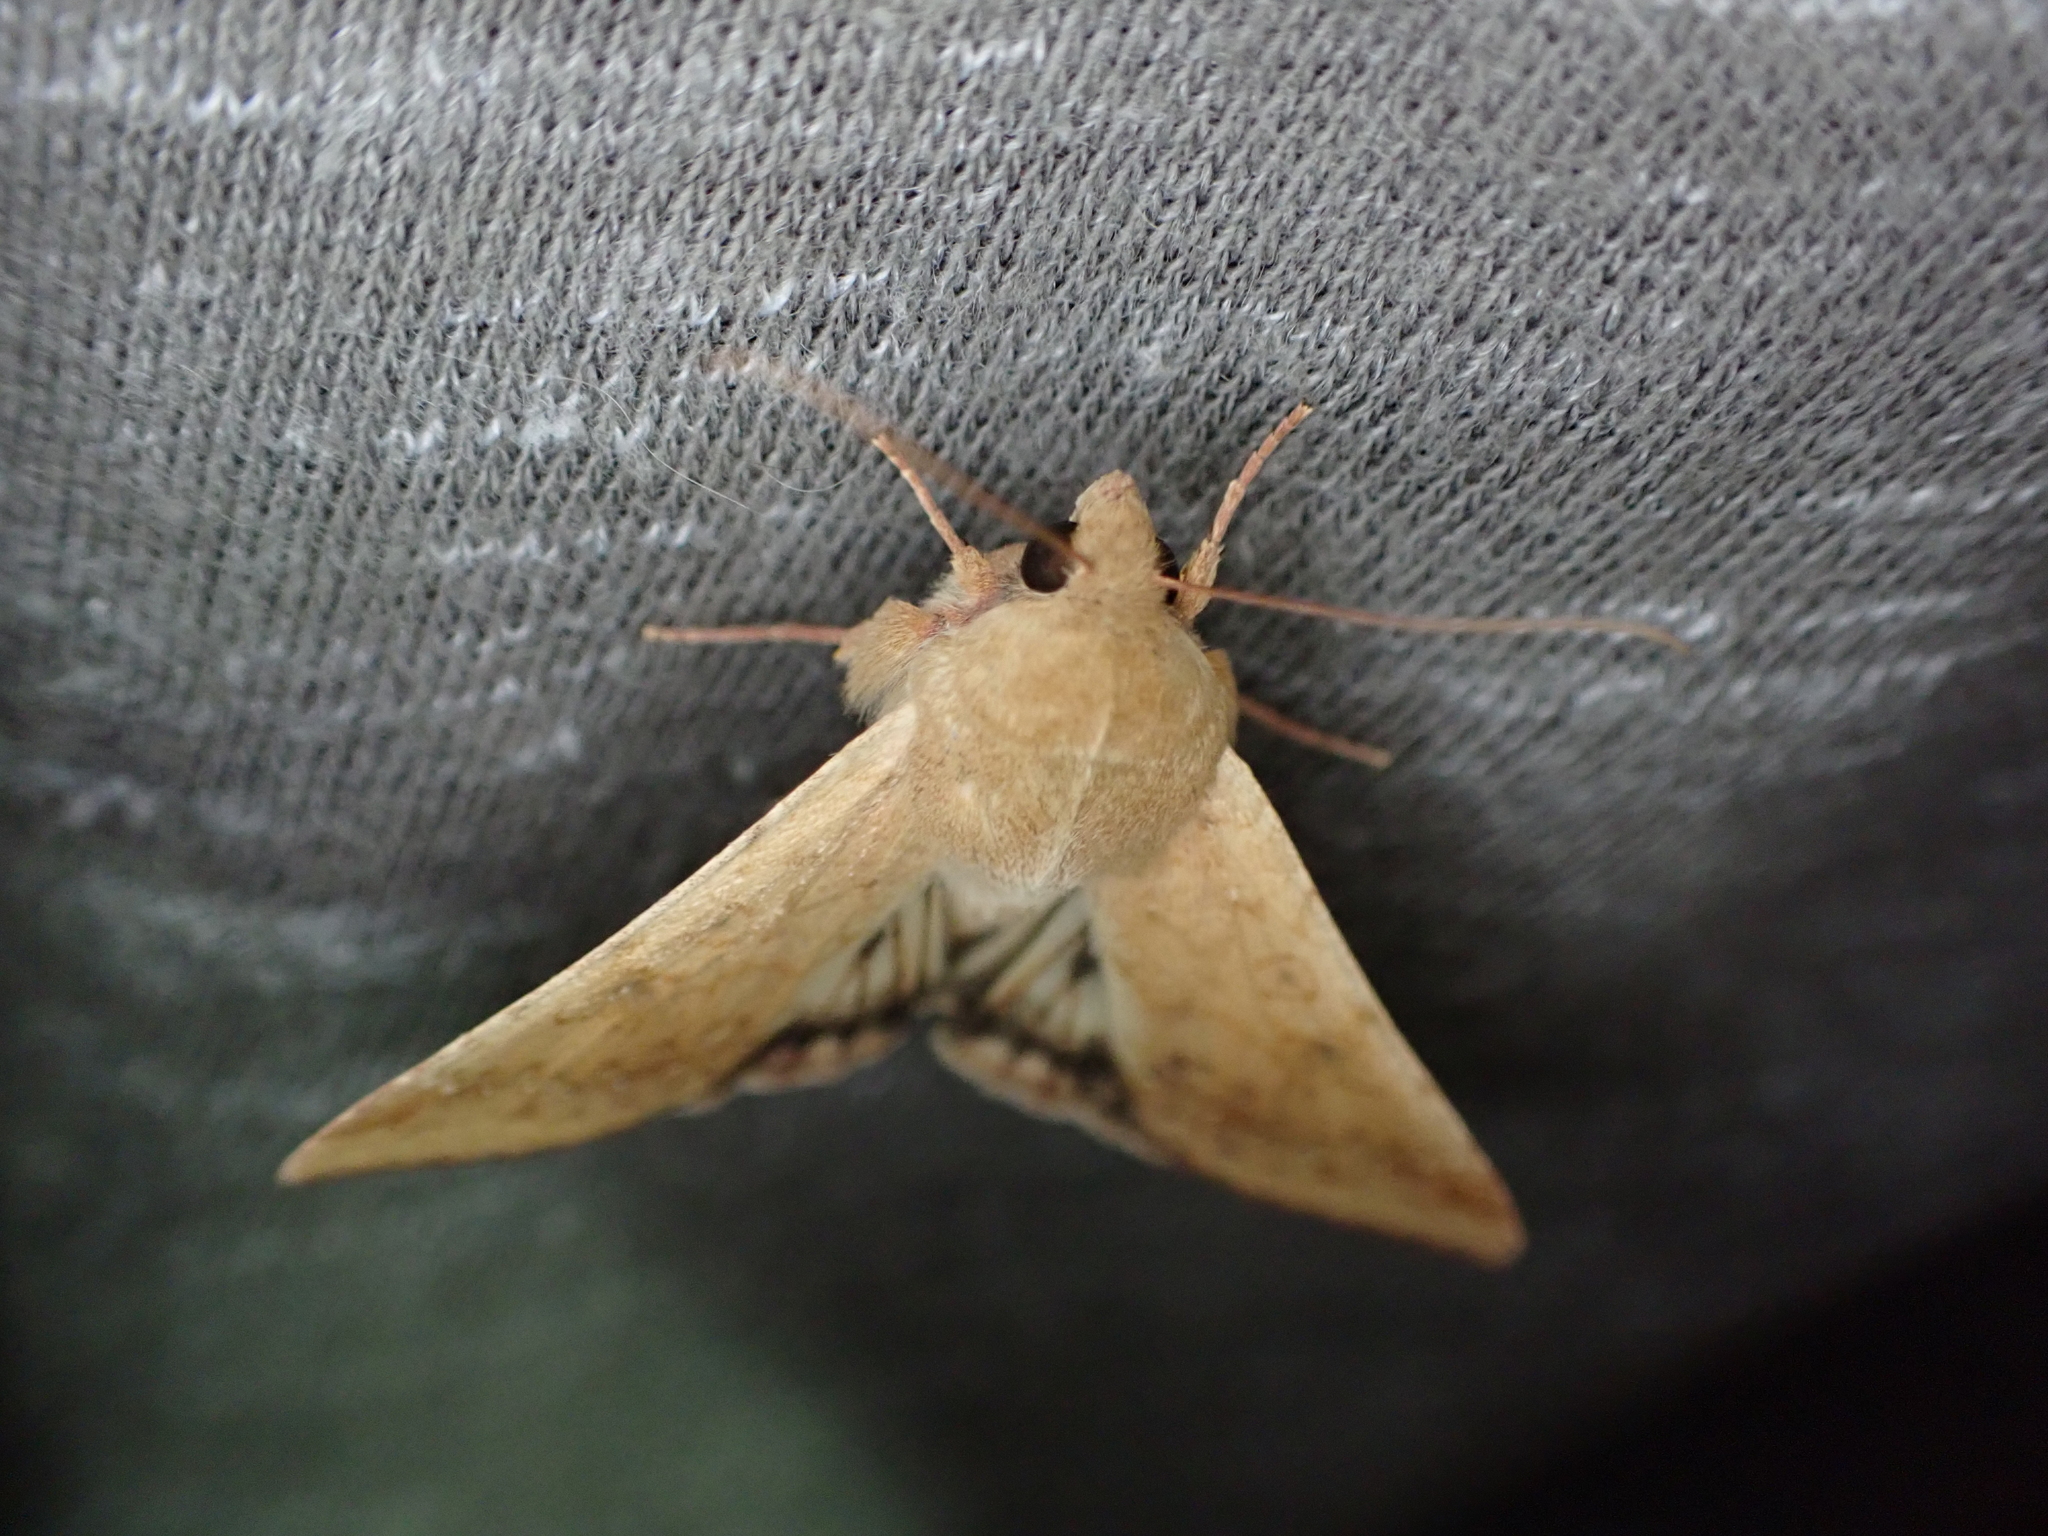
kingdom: Animalia
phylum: Arthropoda
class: Insecta
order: Lepidoptera
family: Noctuidae
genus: Helicoverpa
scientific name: Helicoverpa zea
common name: Bollworm
